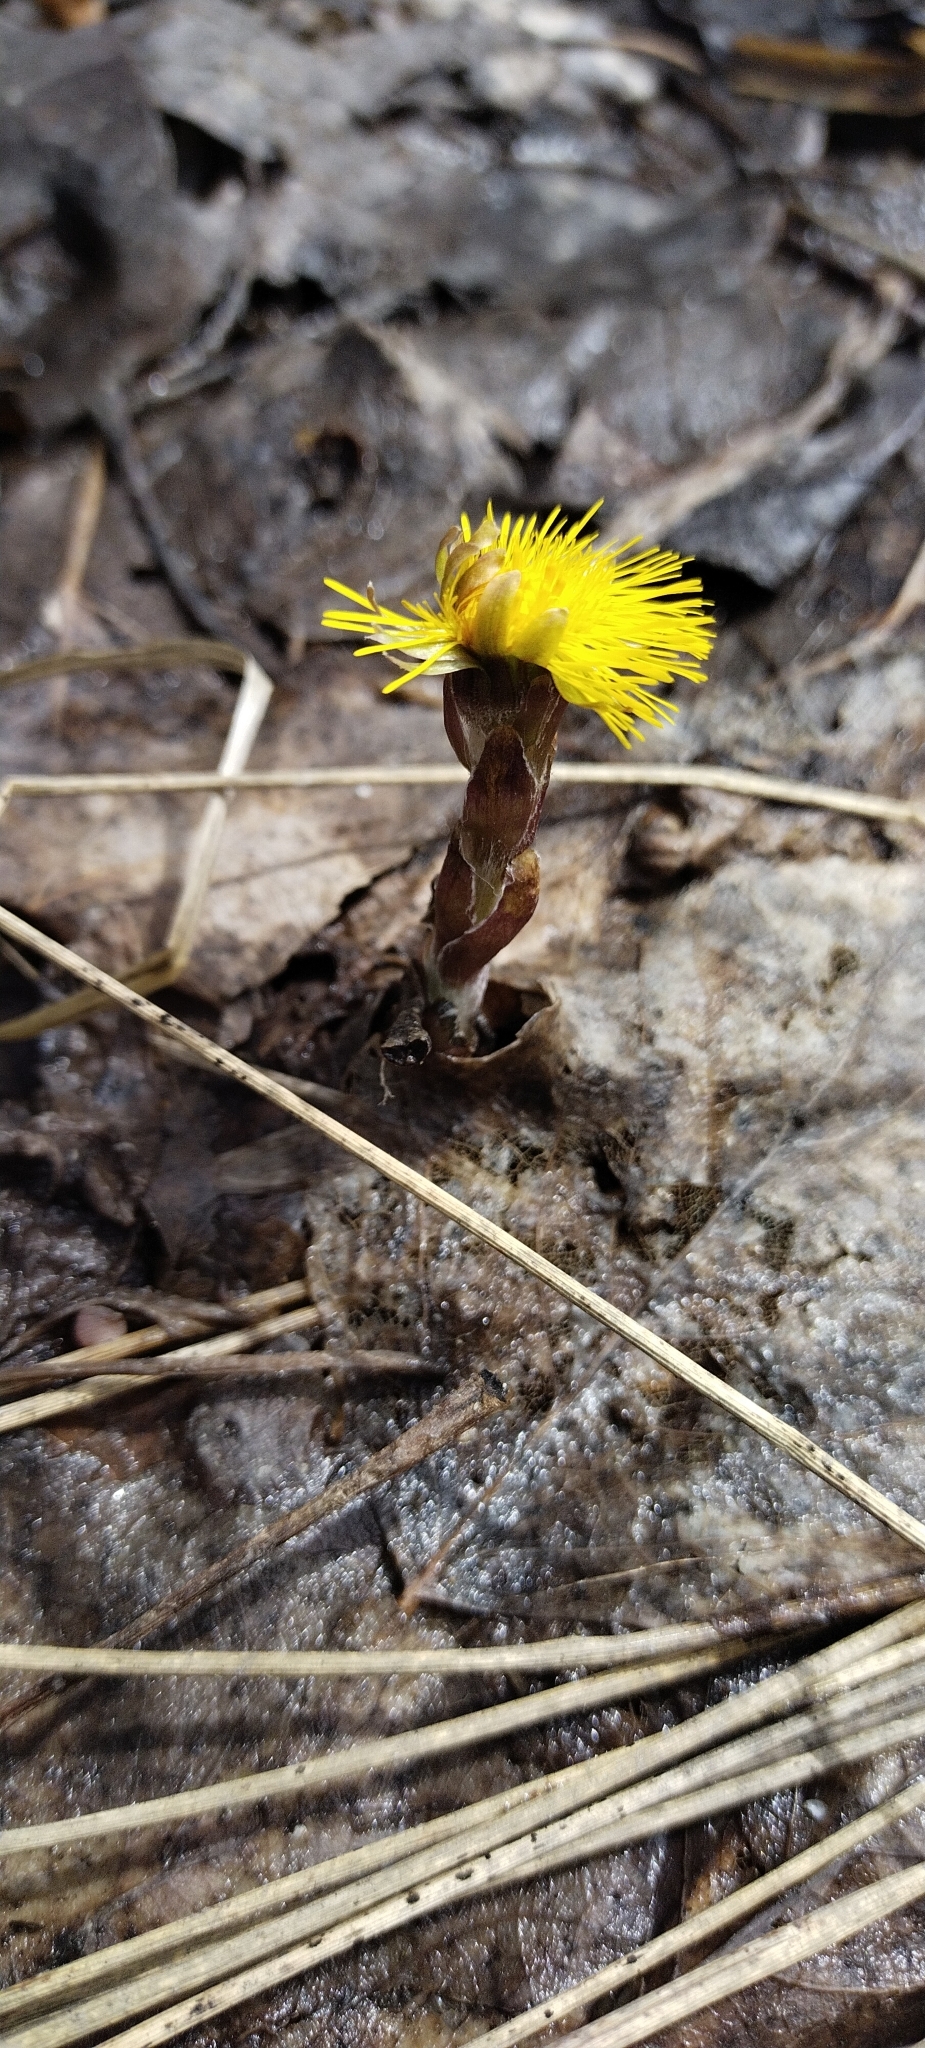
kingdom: Plantae
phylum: Tracheophyta
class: Magnoliopsida
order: Asterales
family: Asteraceae
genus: Tussilago
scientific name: Tussilago farfara
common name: Coltsfoot
